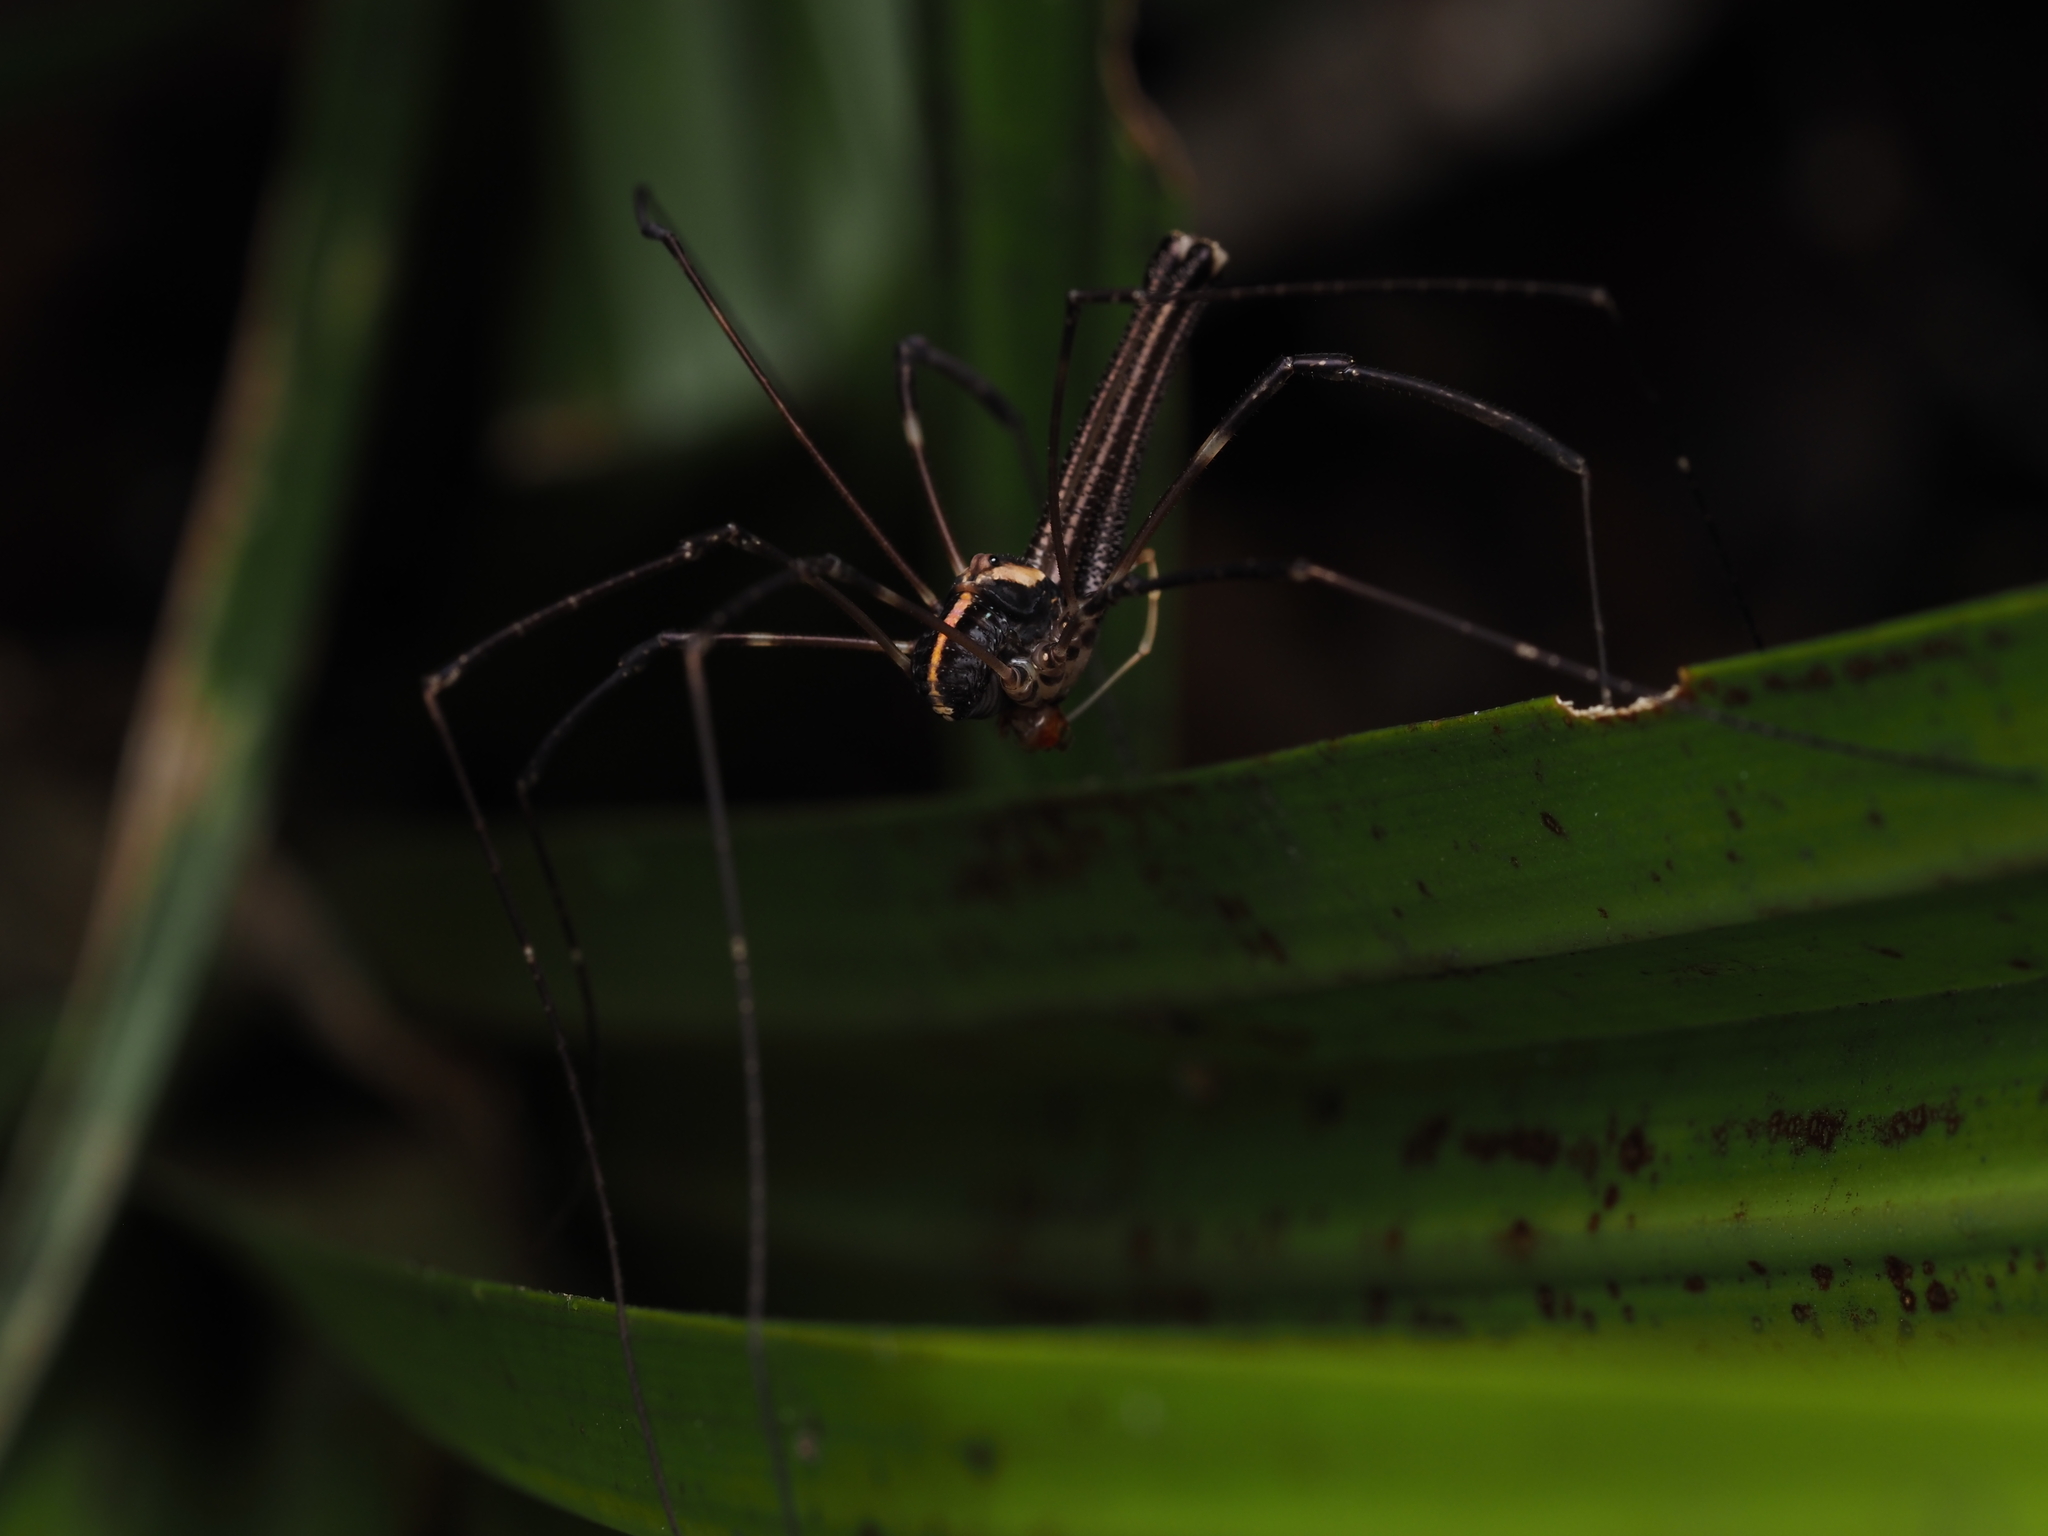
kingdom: Animalia
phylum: Arthropoda
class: Arachnida
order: Opiliones
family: Neopilionidae
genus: Forsteropsalis
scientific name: Forsteropsalis pureora
